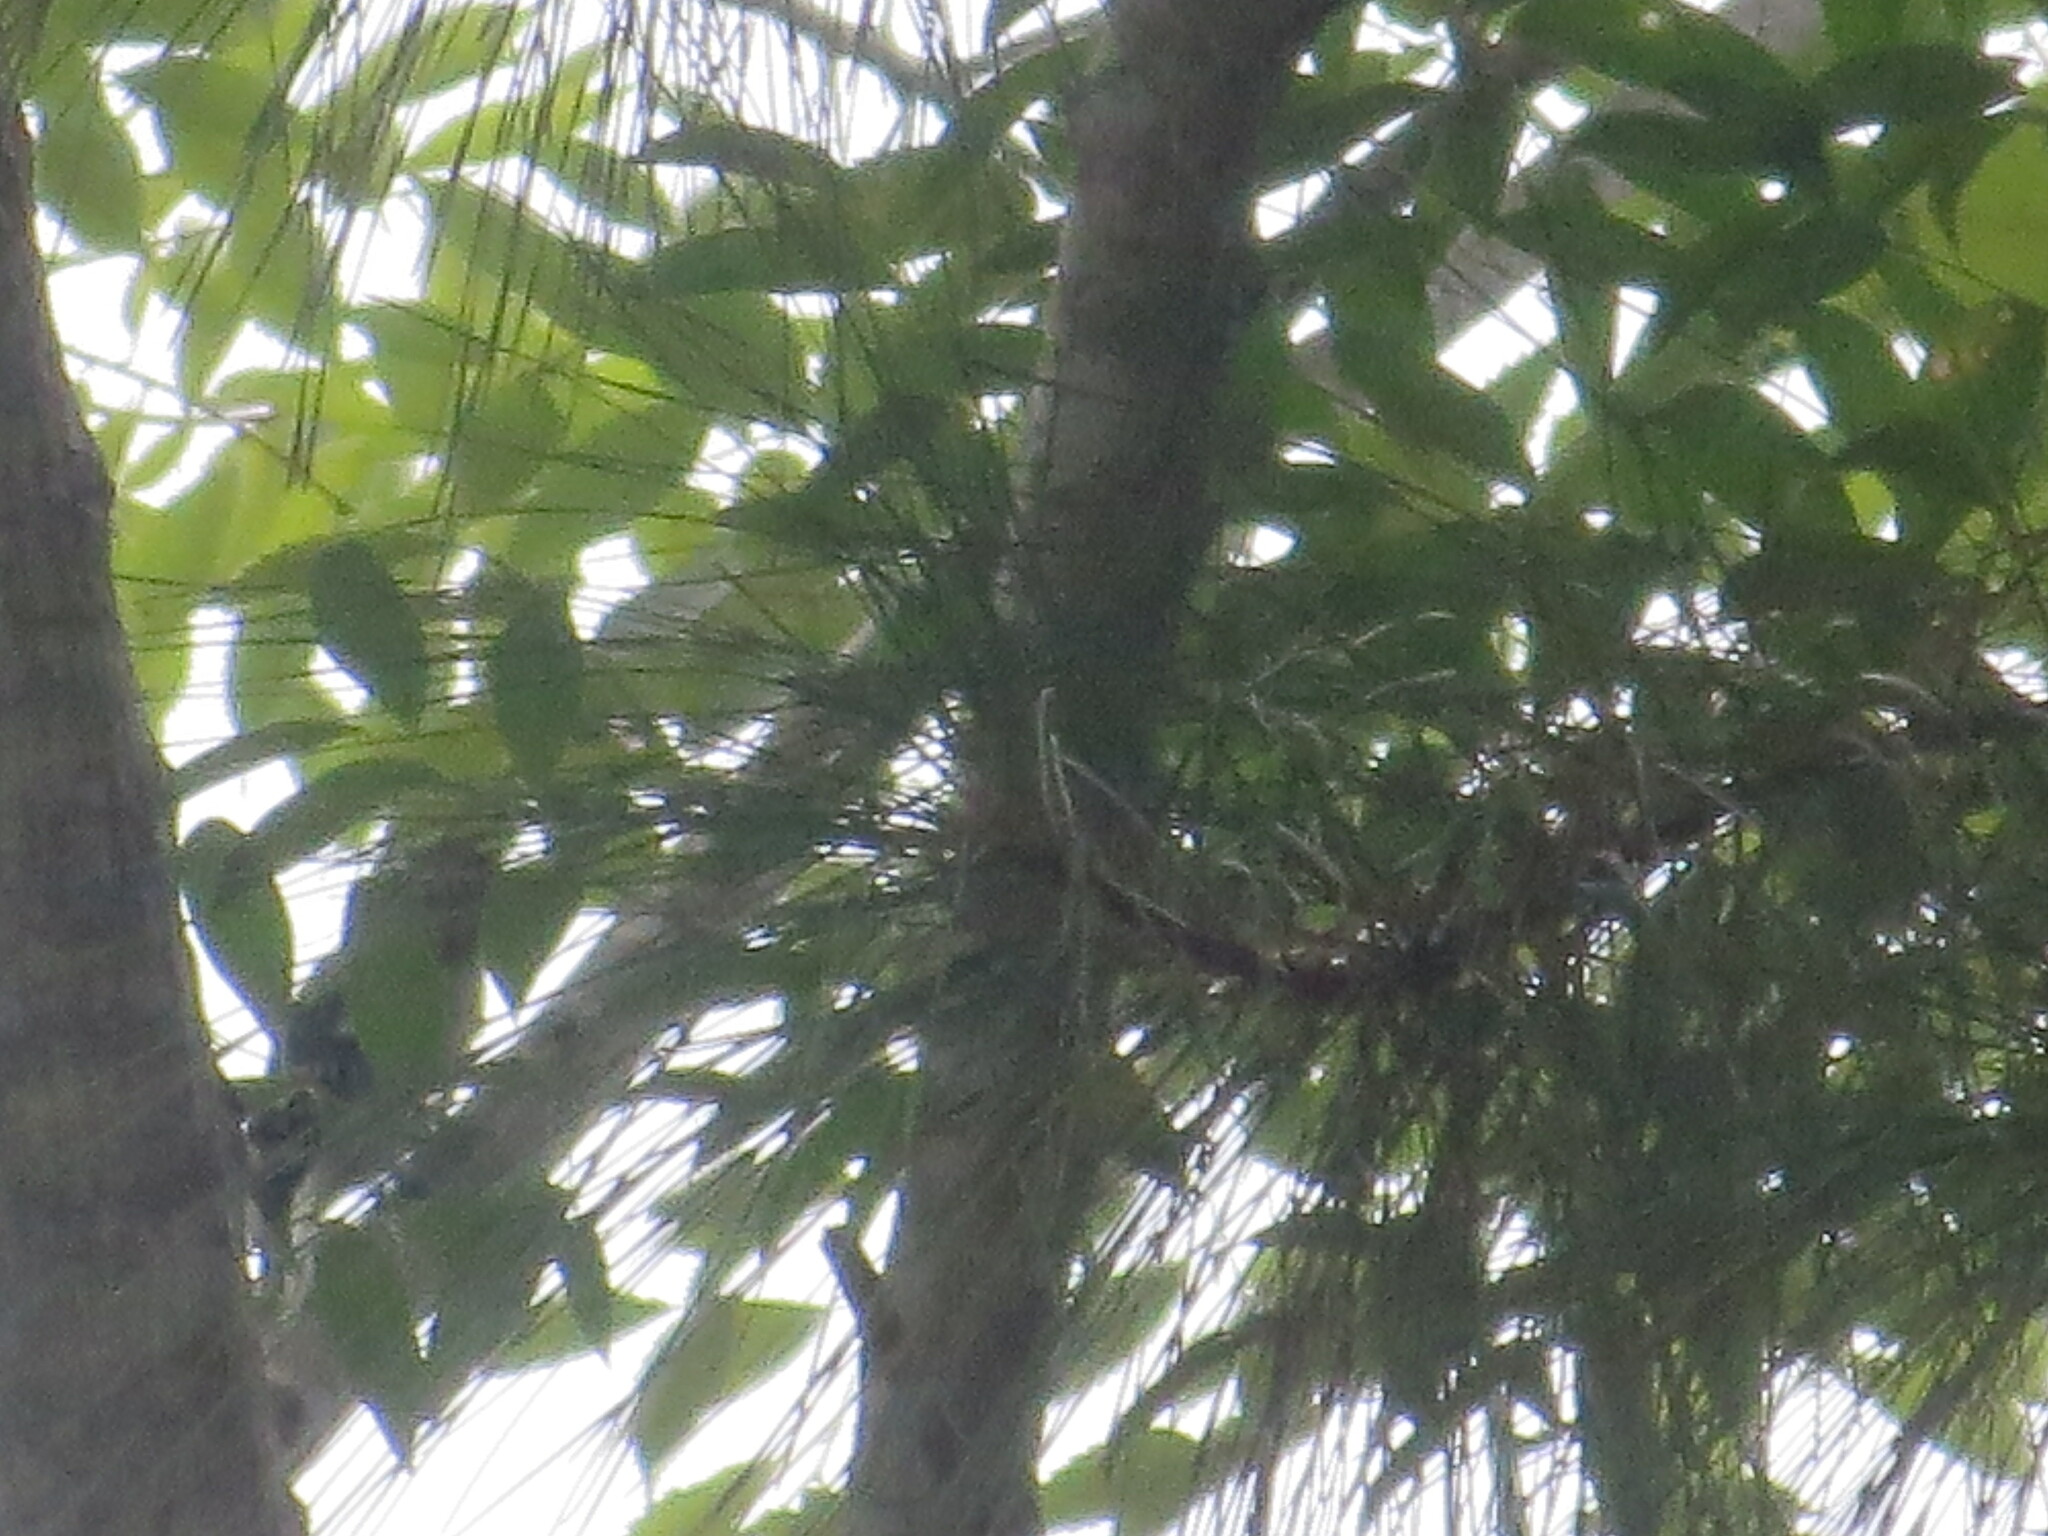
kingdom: Animalia
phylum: Chordata
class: Aves
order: Piciformes
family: Picidae
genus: Dryobates
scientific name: Dryobates pubescens
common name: Downy woodpecker
